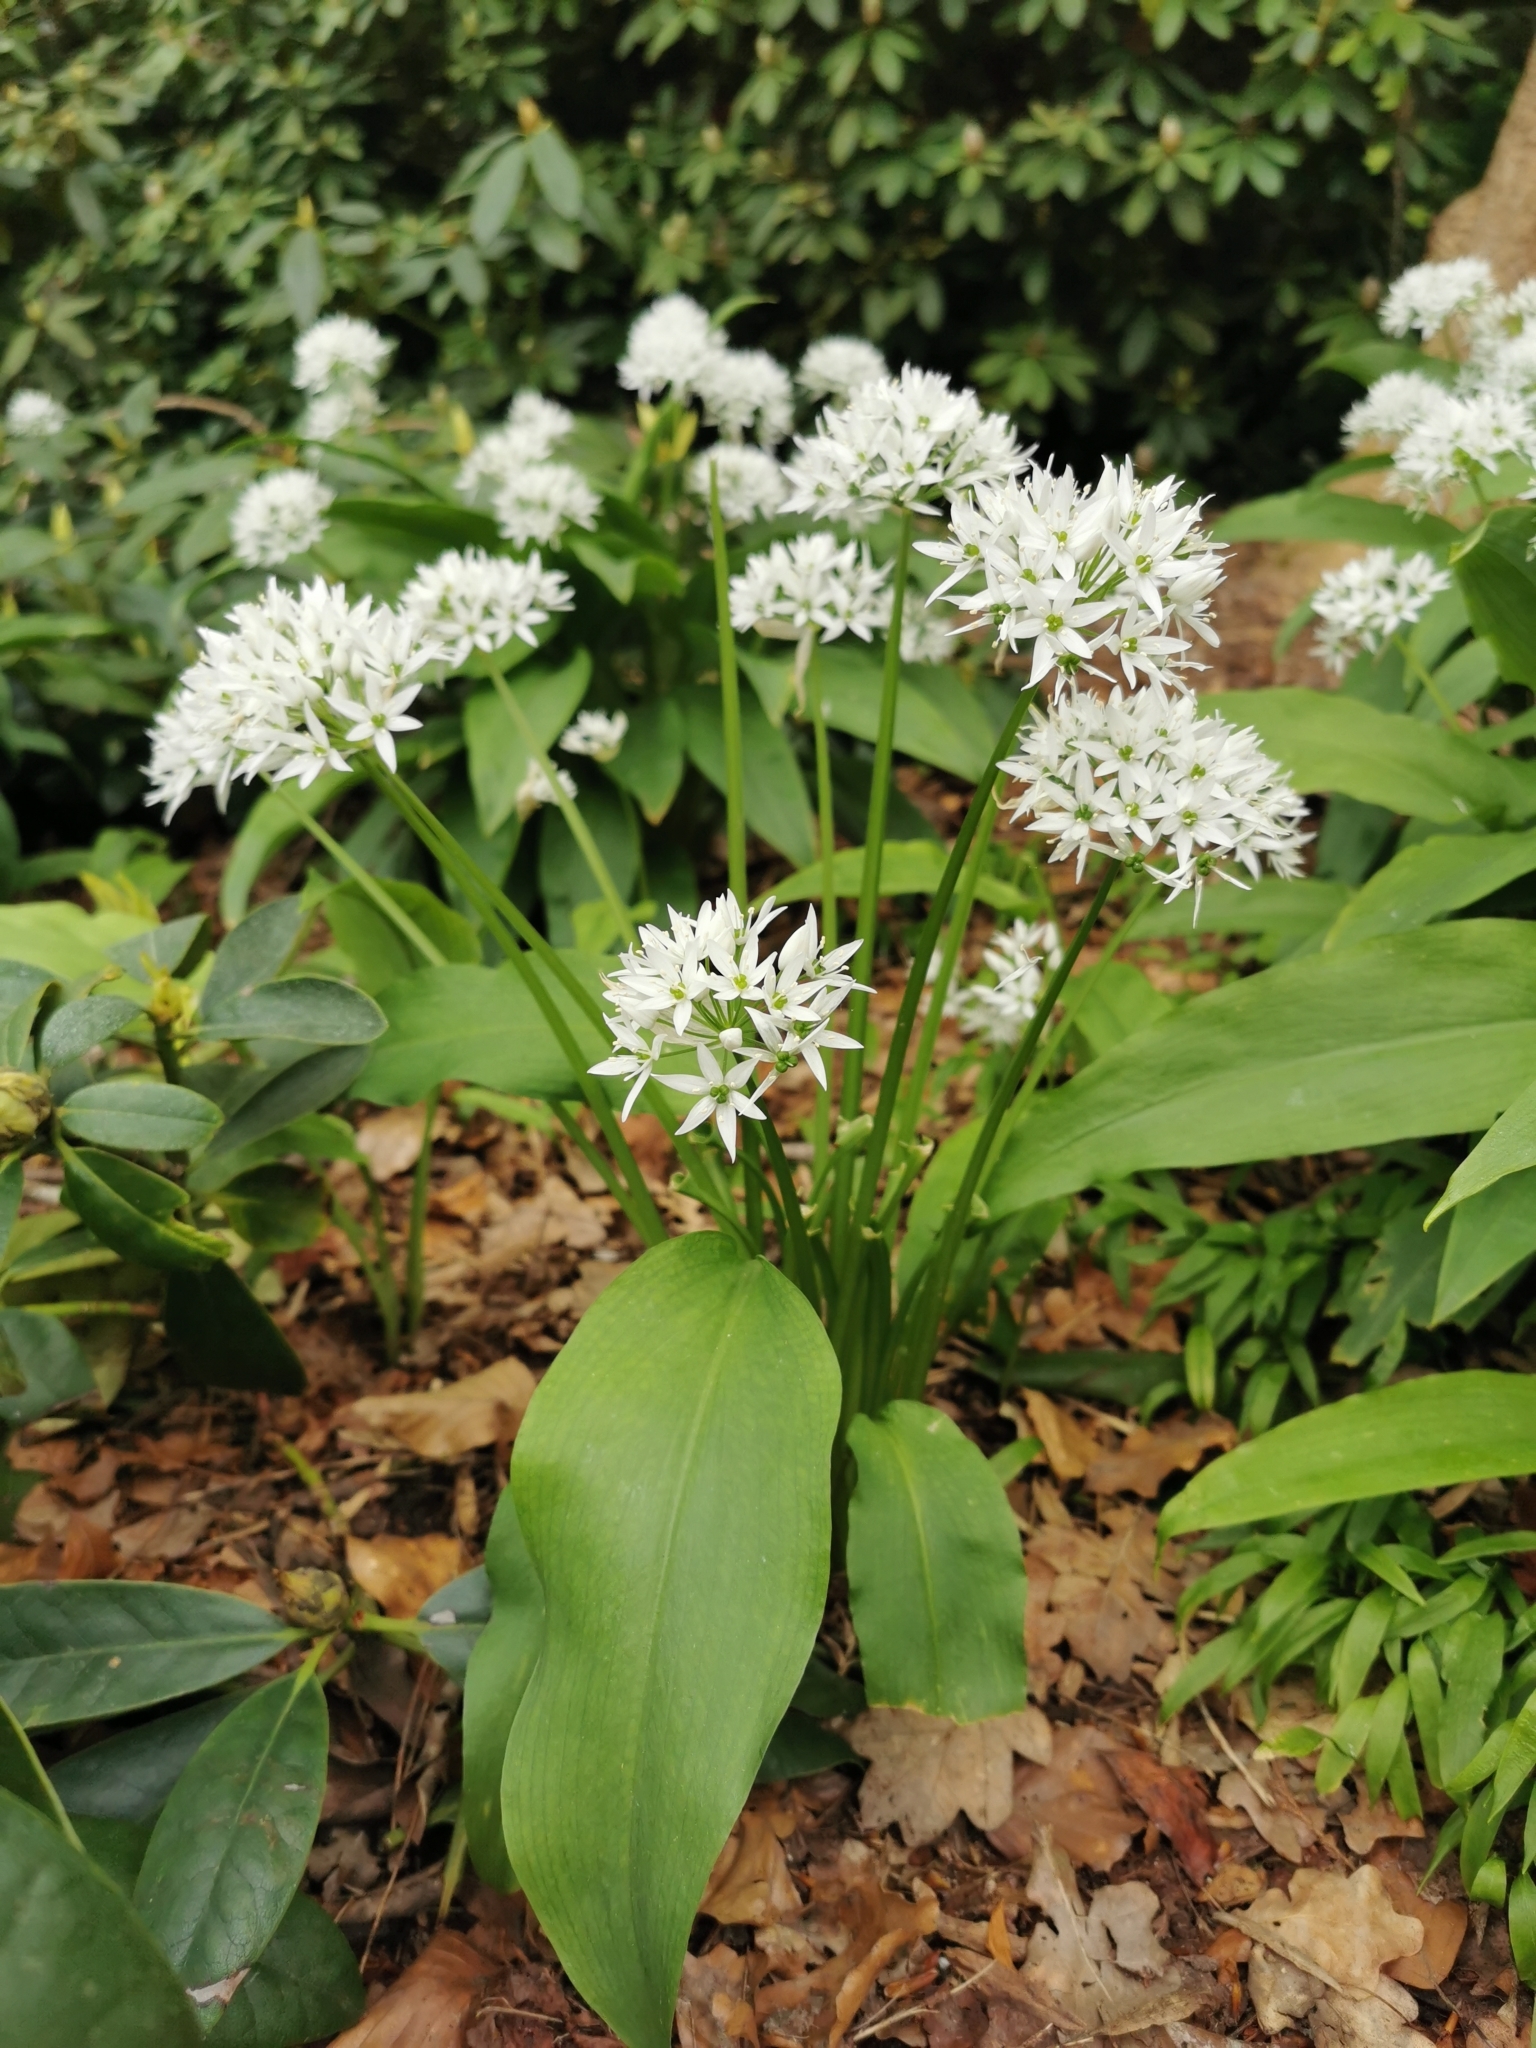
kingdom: Plantae
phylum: Tracheophyta
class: Liliopsida
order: Asparagales
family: Amaryllidaceae
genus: Allium
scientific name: Allium ursinum
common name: Ramsons
